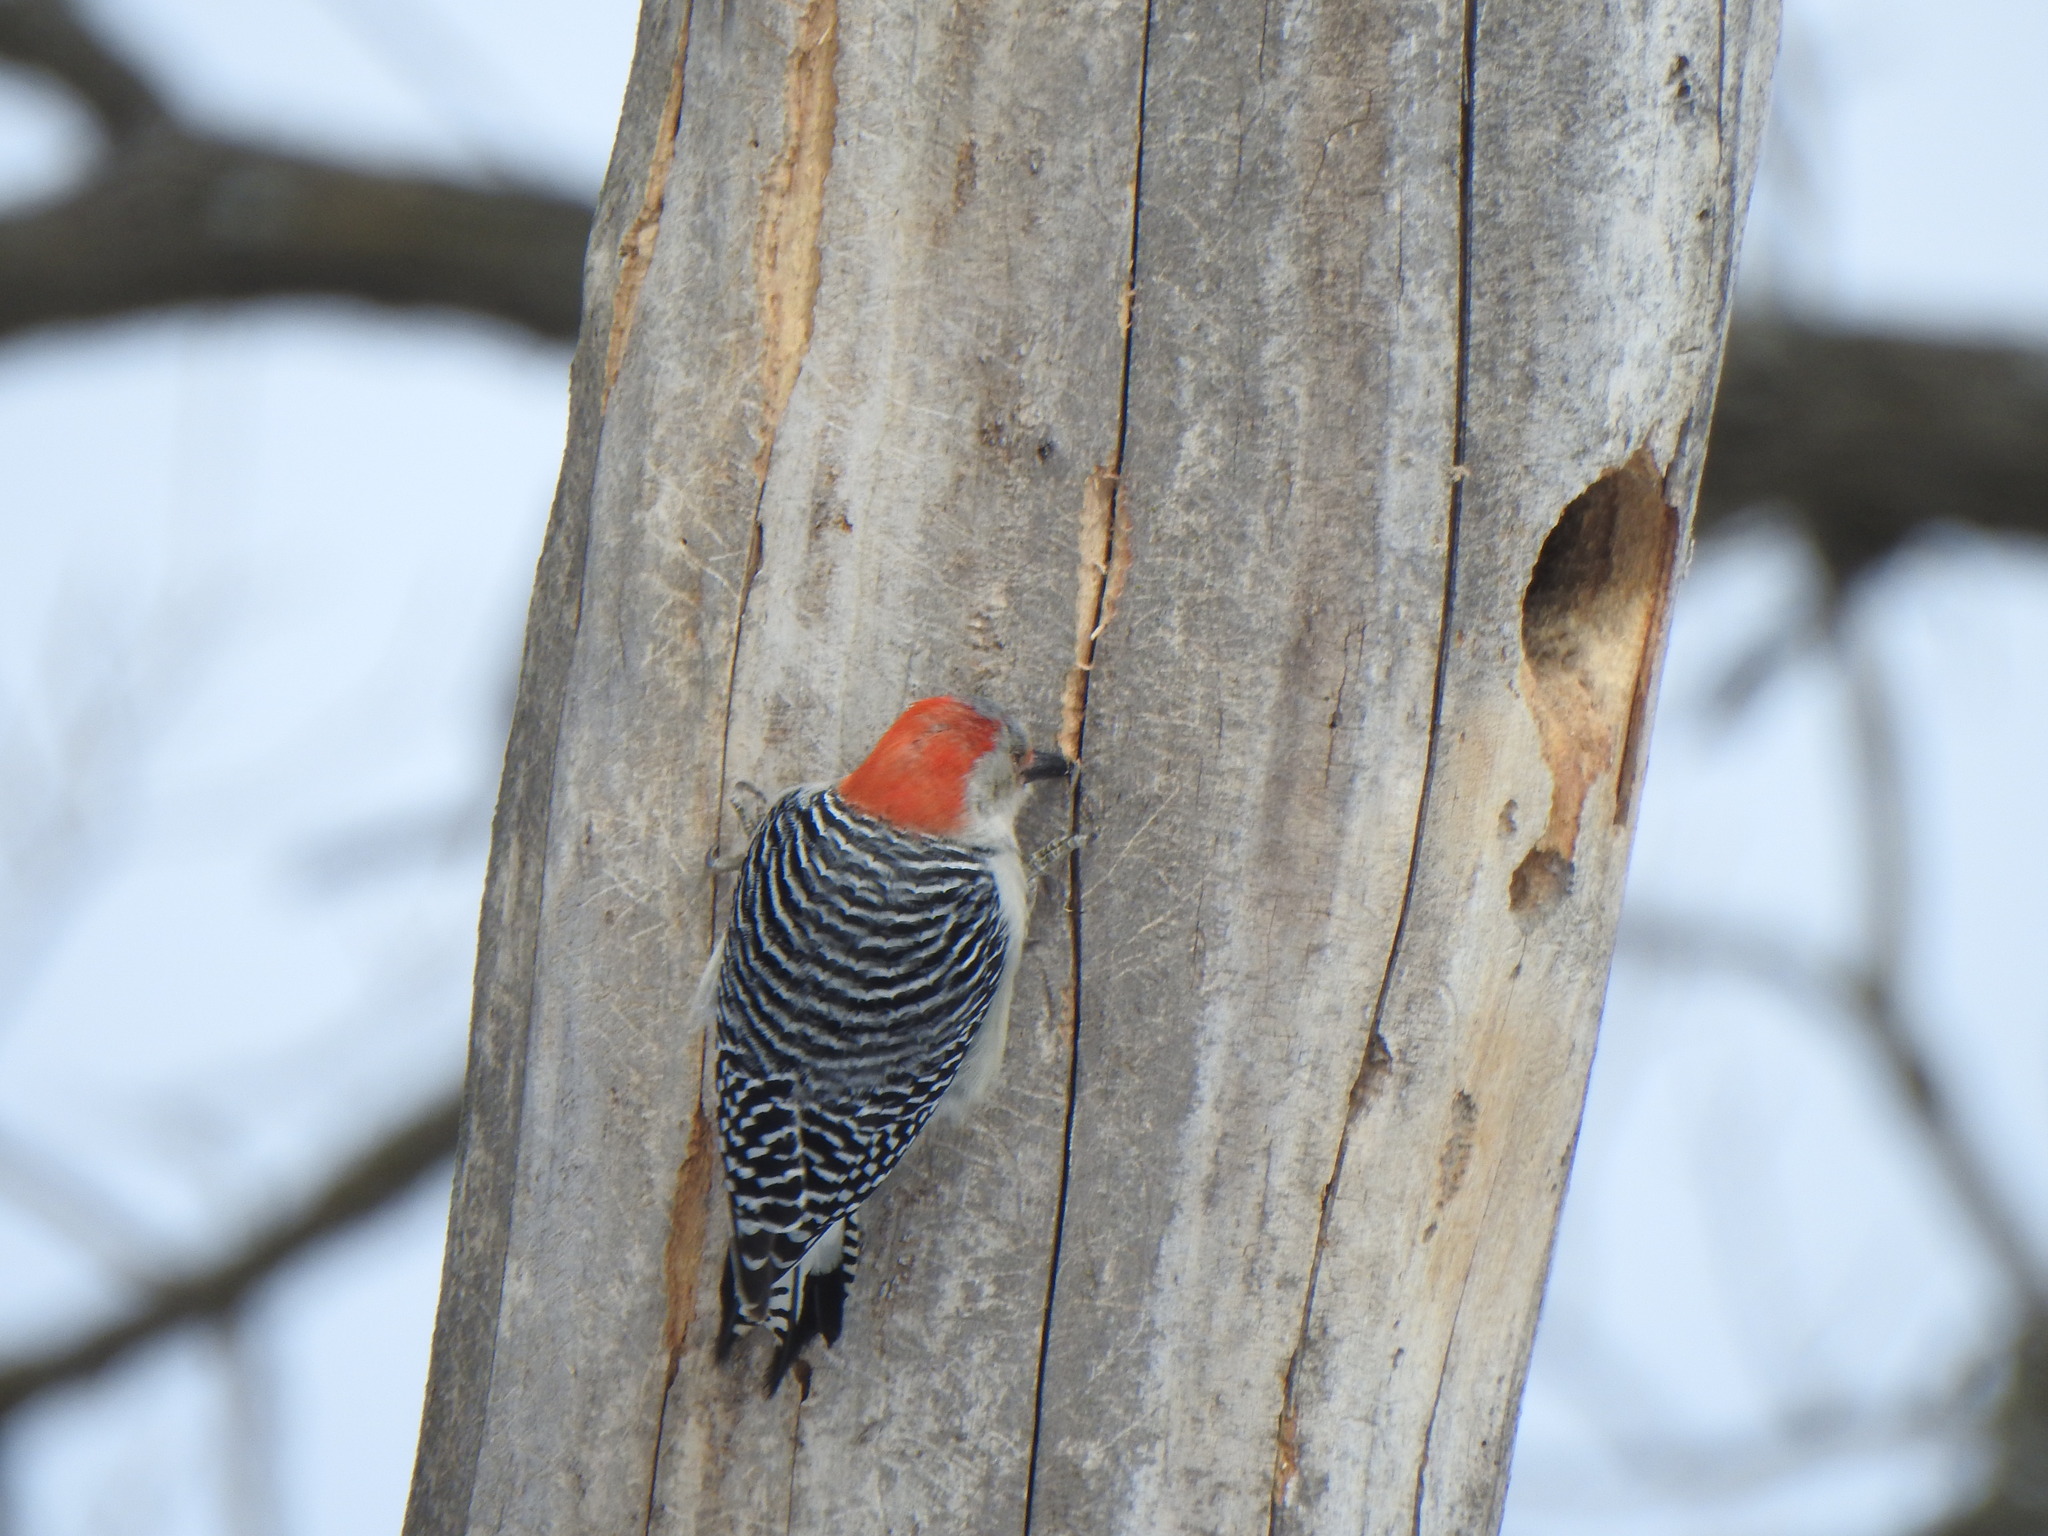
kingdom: Animalia
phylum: Chordata
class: Aves
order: Piciformes
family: Picidae
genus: Melanerpes
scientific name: Melanerpes carolinus
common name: Red-bellied woodpecker
